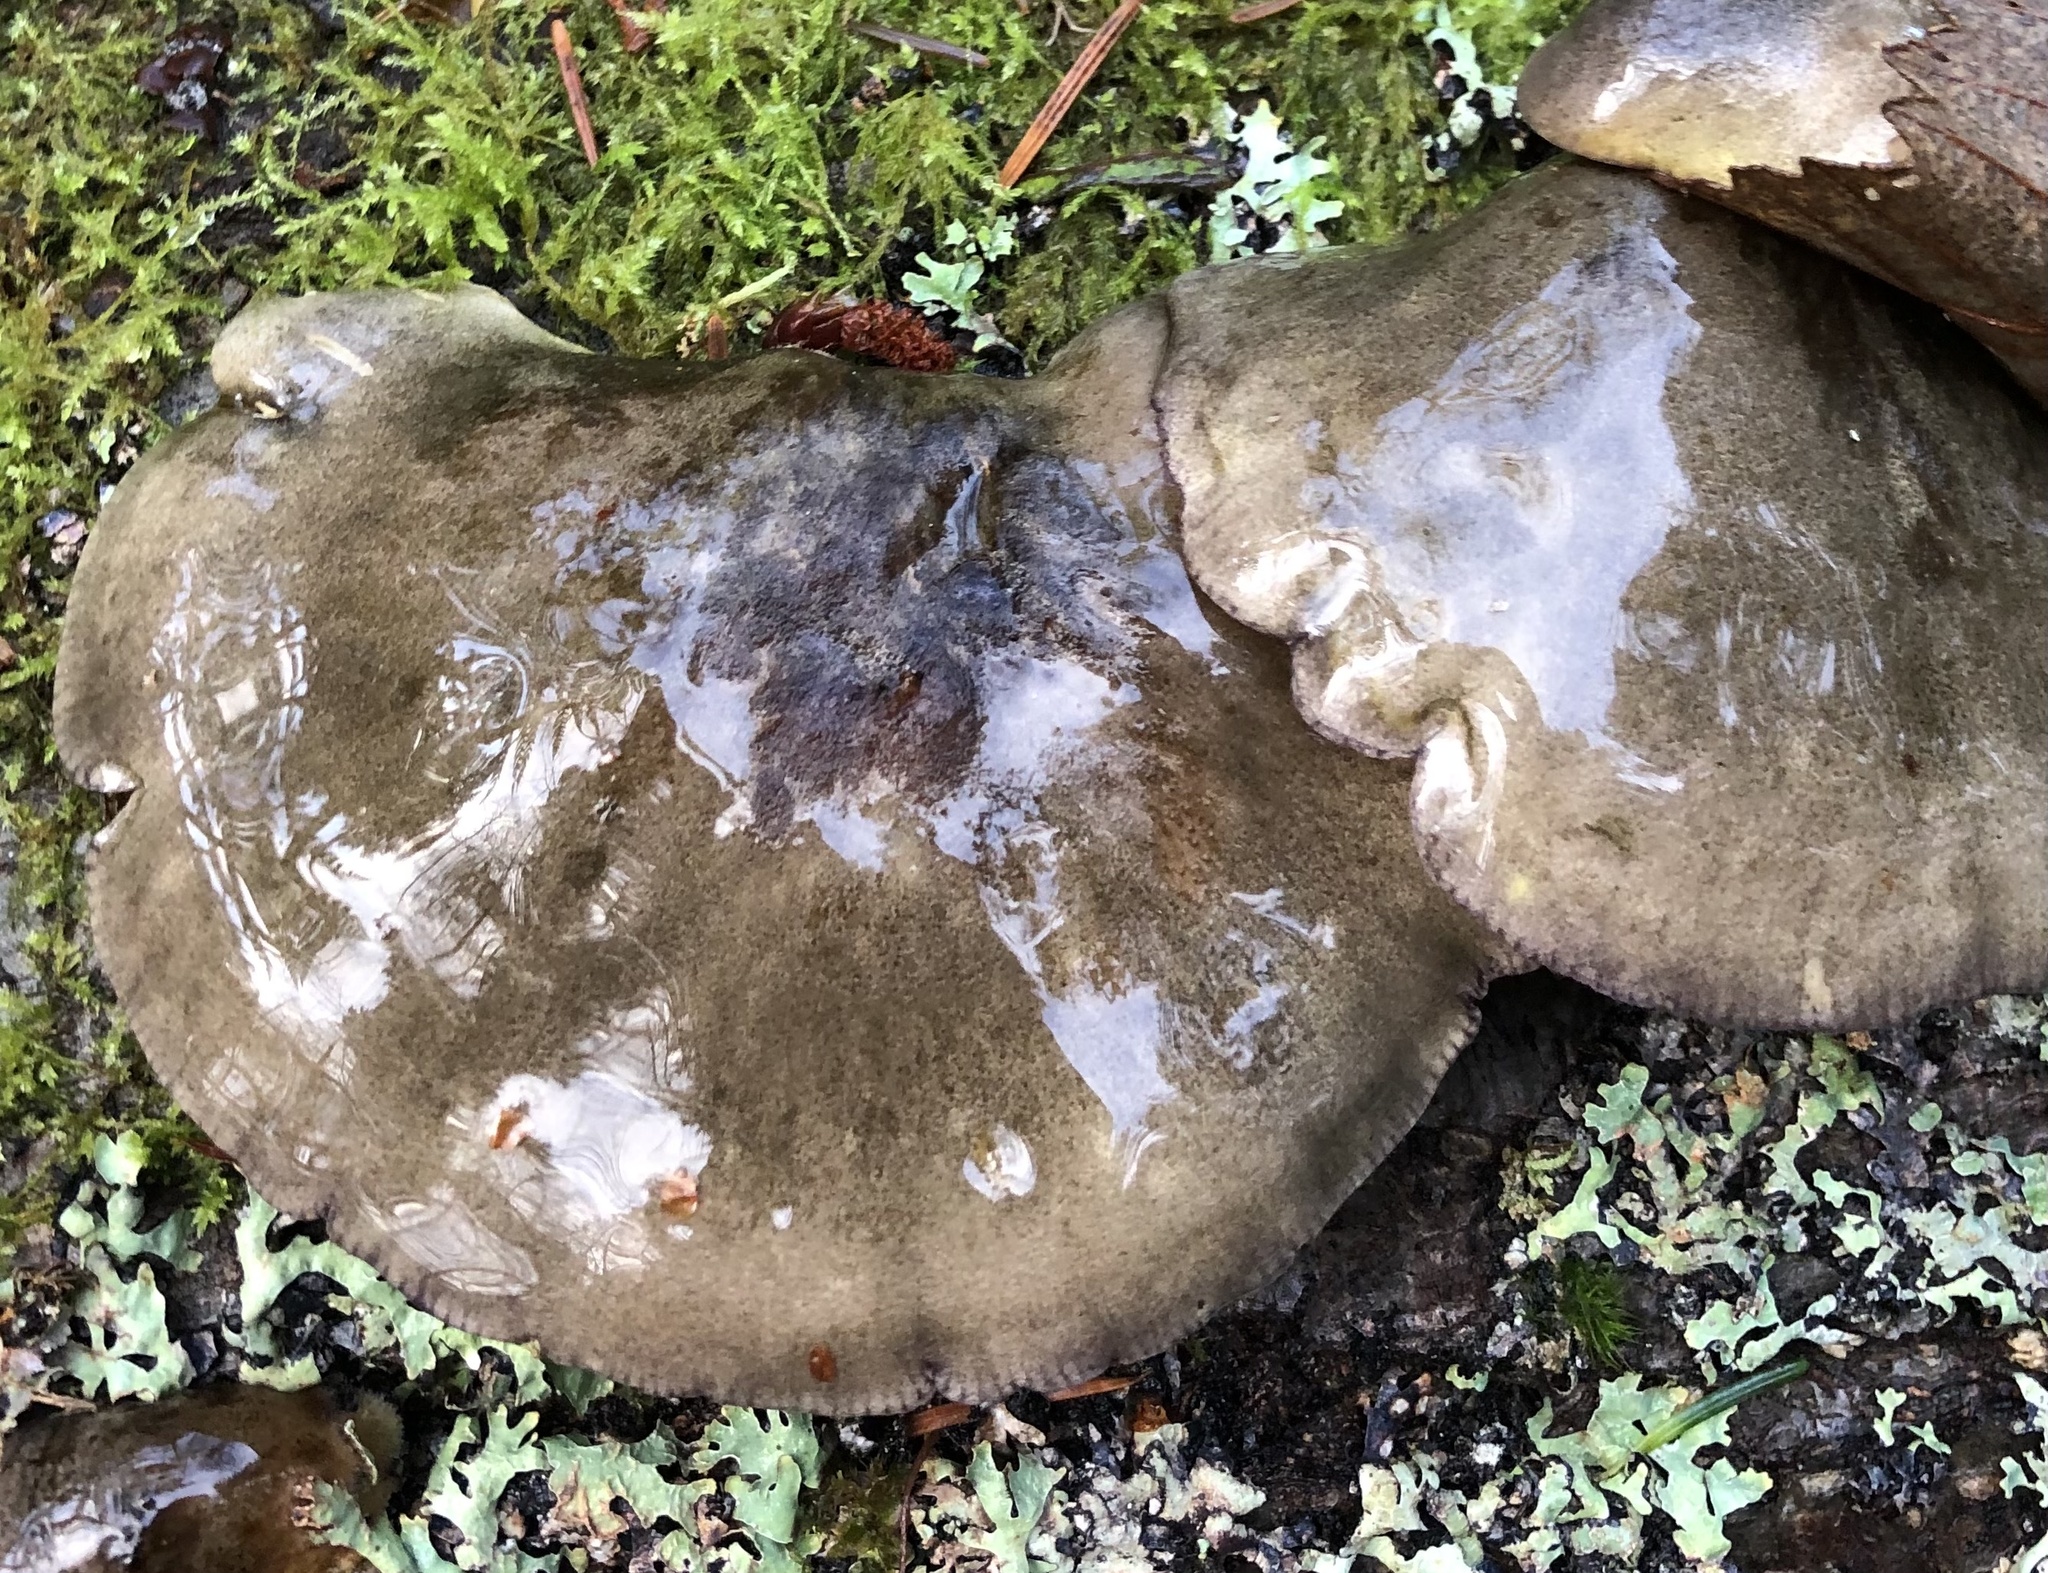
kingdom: Fungi
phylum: Basidiomycota
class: Agaricomycetes
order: Agaricales
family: Sarcomyxaceae
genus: Sarcomyxa
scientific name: Sarcomyxa serotina
